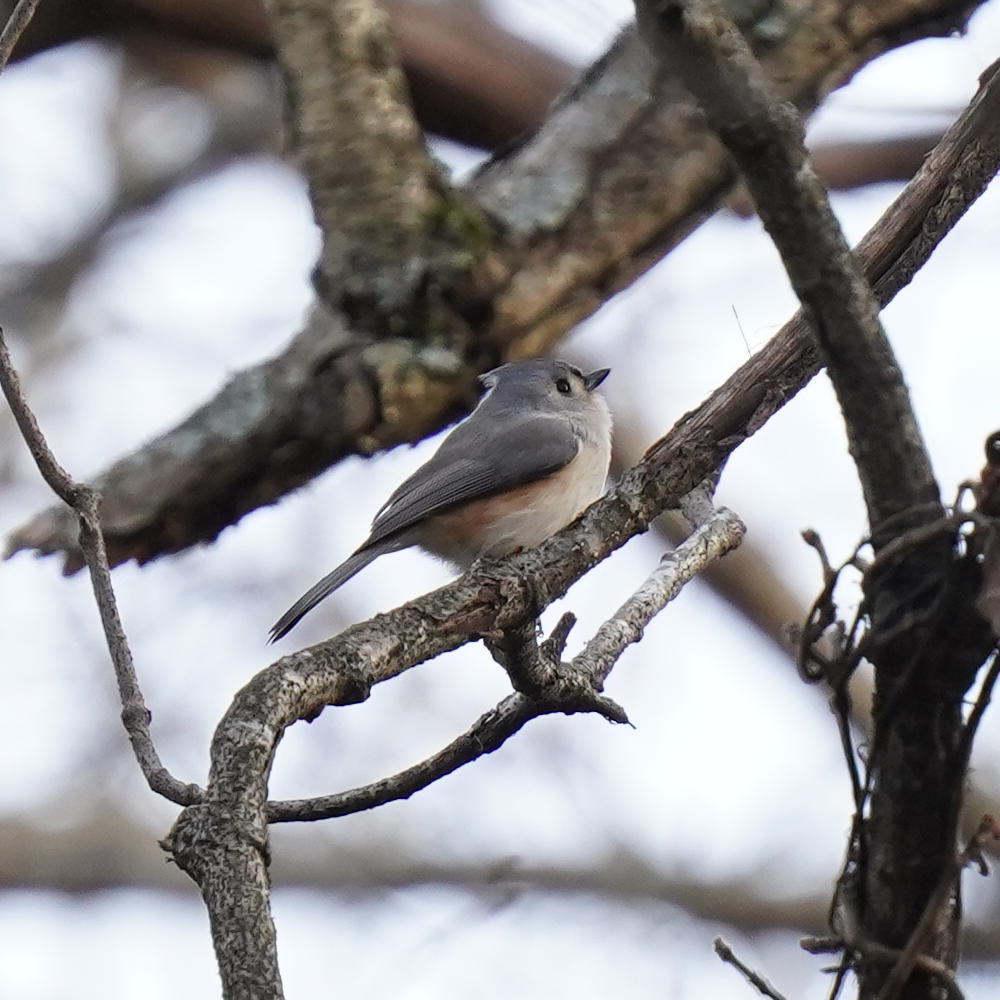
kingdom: Animalia
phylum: Chordata
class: Aves
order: Passeriformes
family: Paridae
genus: Baeolophus
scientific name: Baeolophus bicolor
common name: Tufted titmouse
